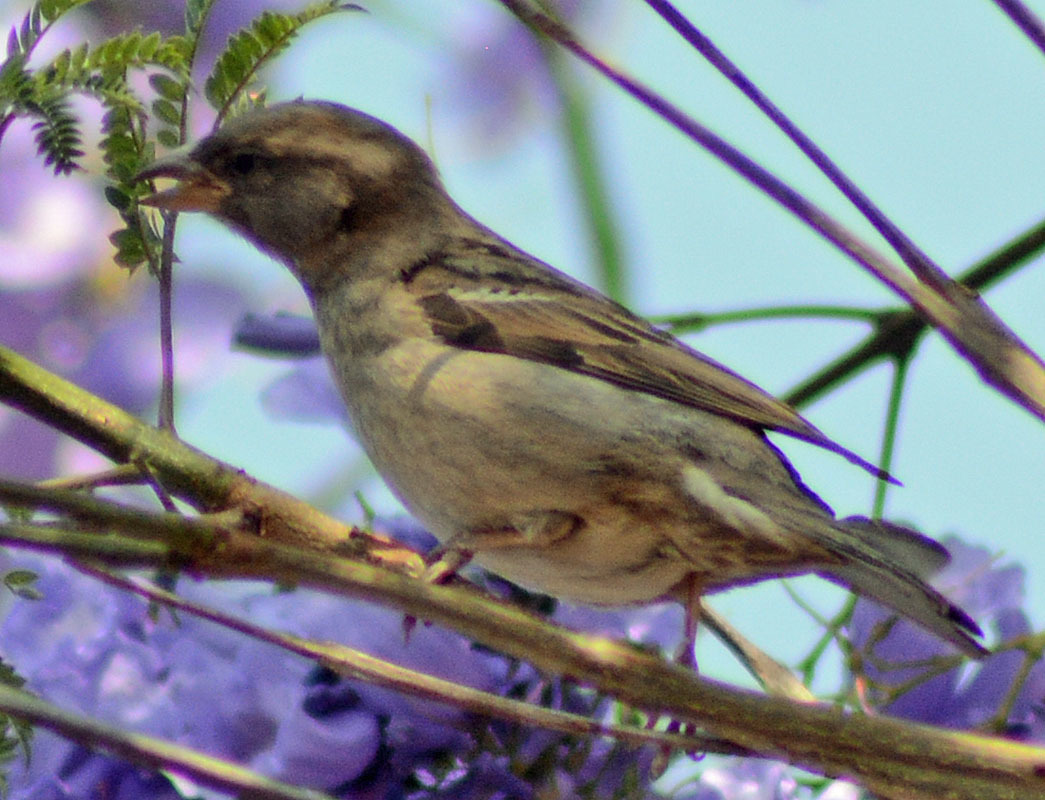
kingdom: Animalia
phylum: Chordata
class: Aves
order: Passeriformes
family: Passeridae
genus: Passer
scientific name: Passer domesticus
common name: House sparrow
